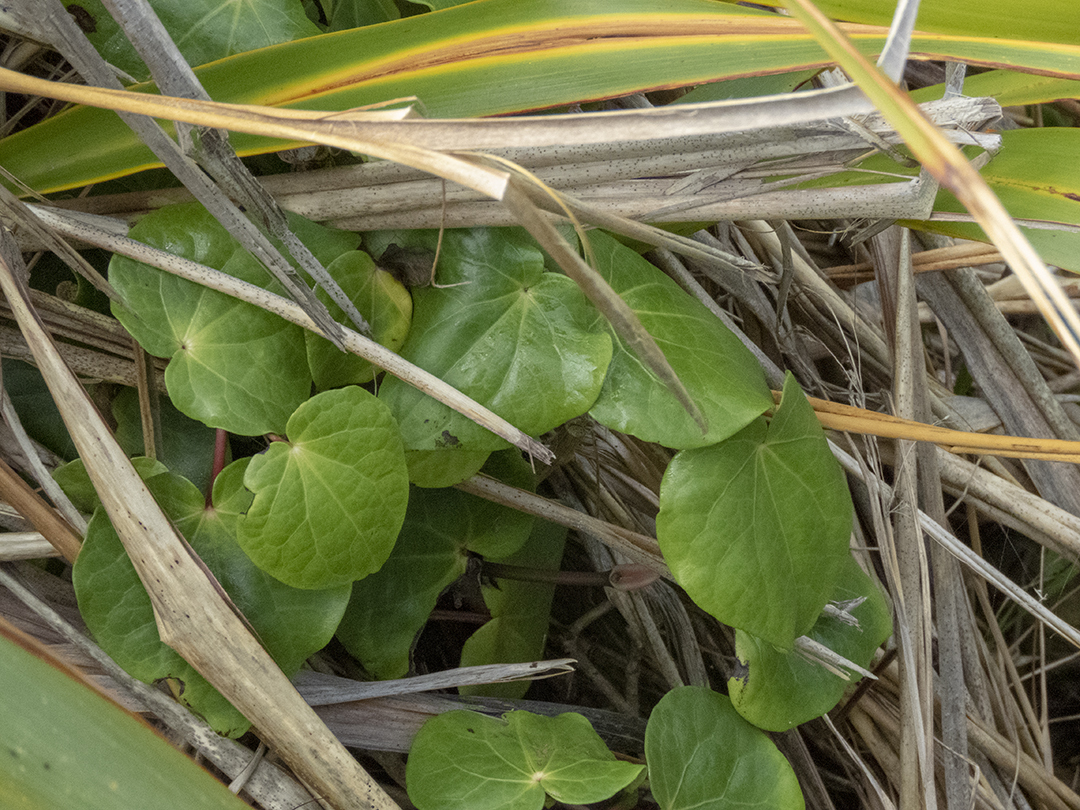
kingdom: Plantae
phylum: Tracheophyta
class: Magnoliopsida
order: Piperales
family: Piperaceae
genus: Macropiper
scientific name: Macropiper excelsum
